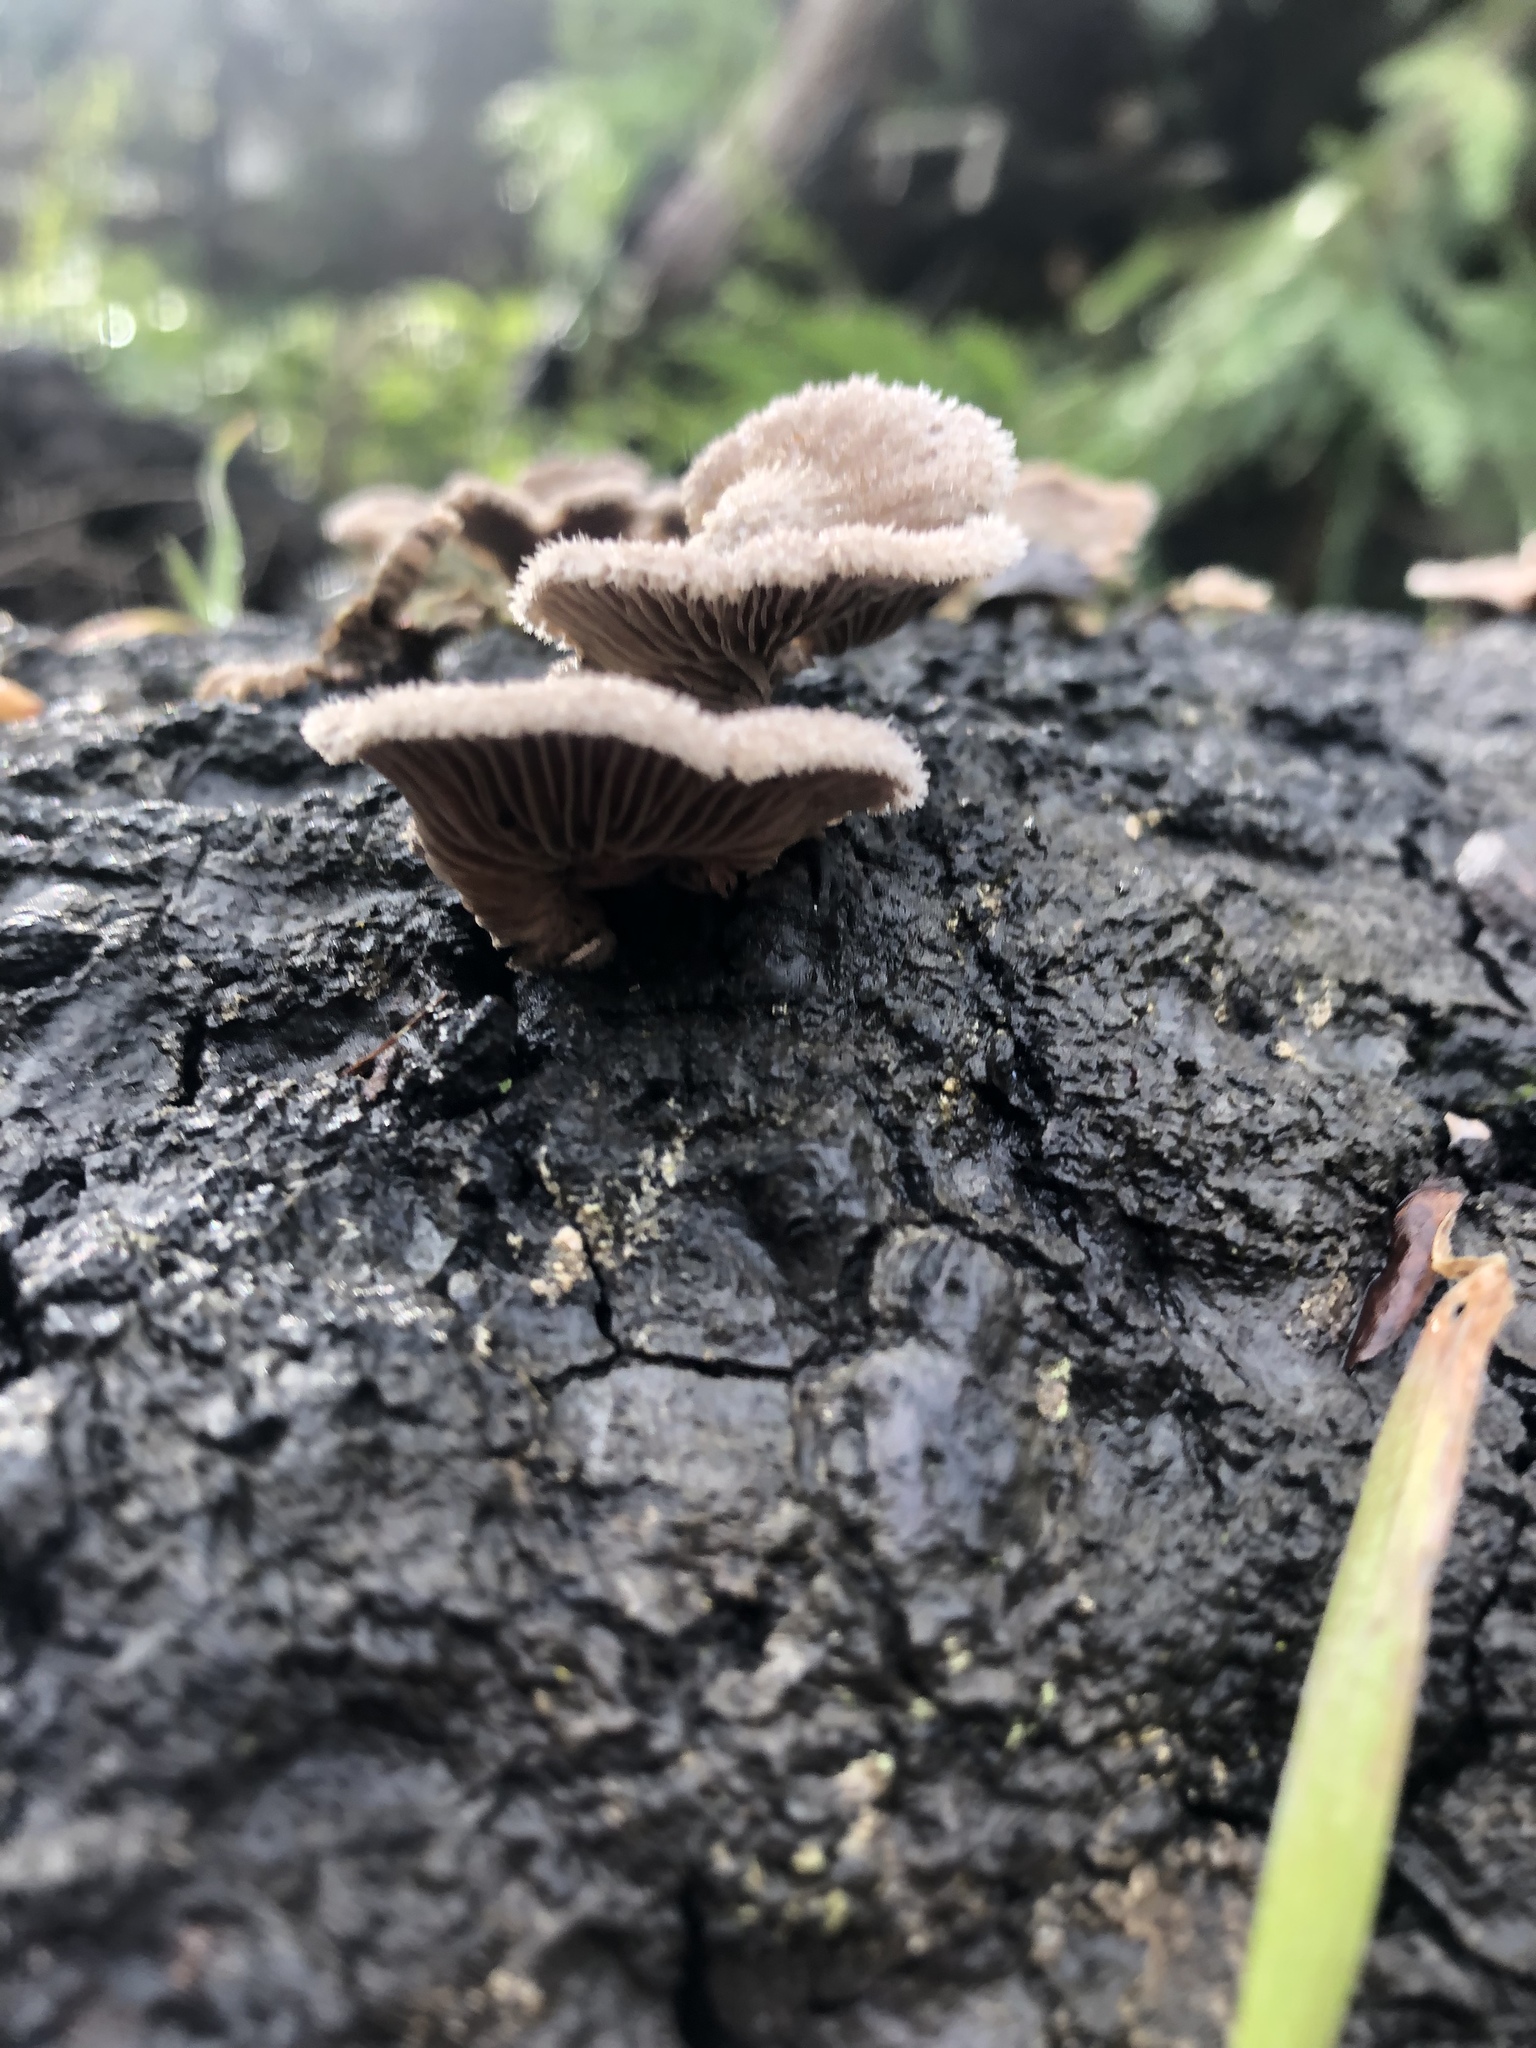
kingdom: Fungi
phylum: Basidiomycota
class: Agaricomycetes
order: Agaricales
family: Schizophyllaceae
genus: Schizophyllum
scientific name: Schizophyllum commune
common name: Common porecrust
